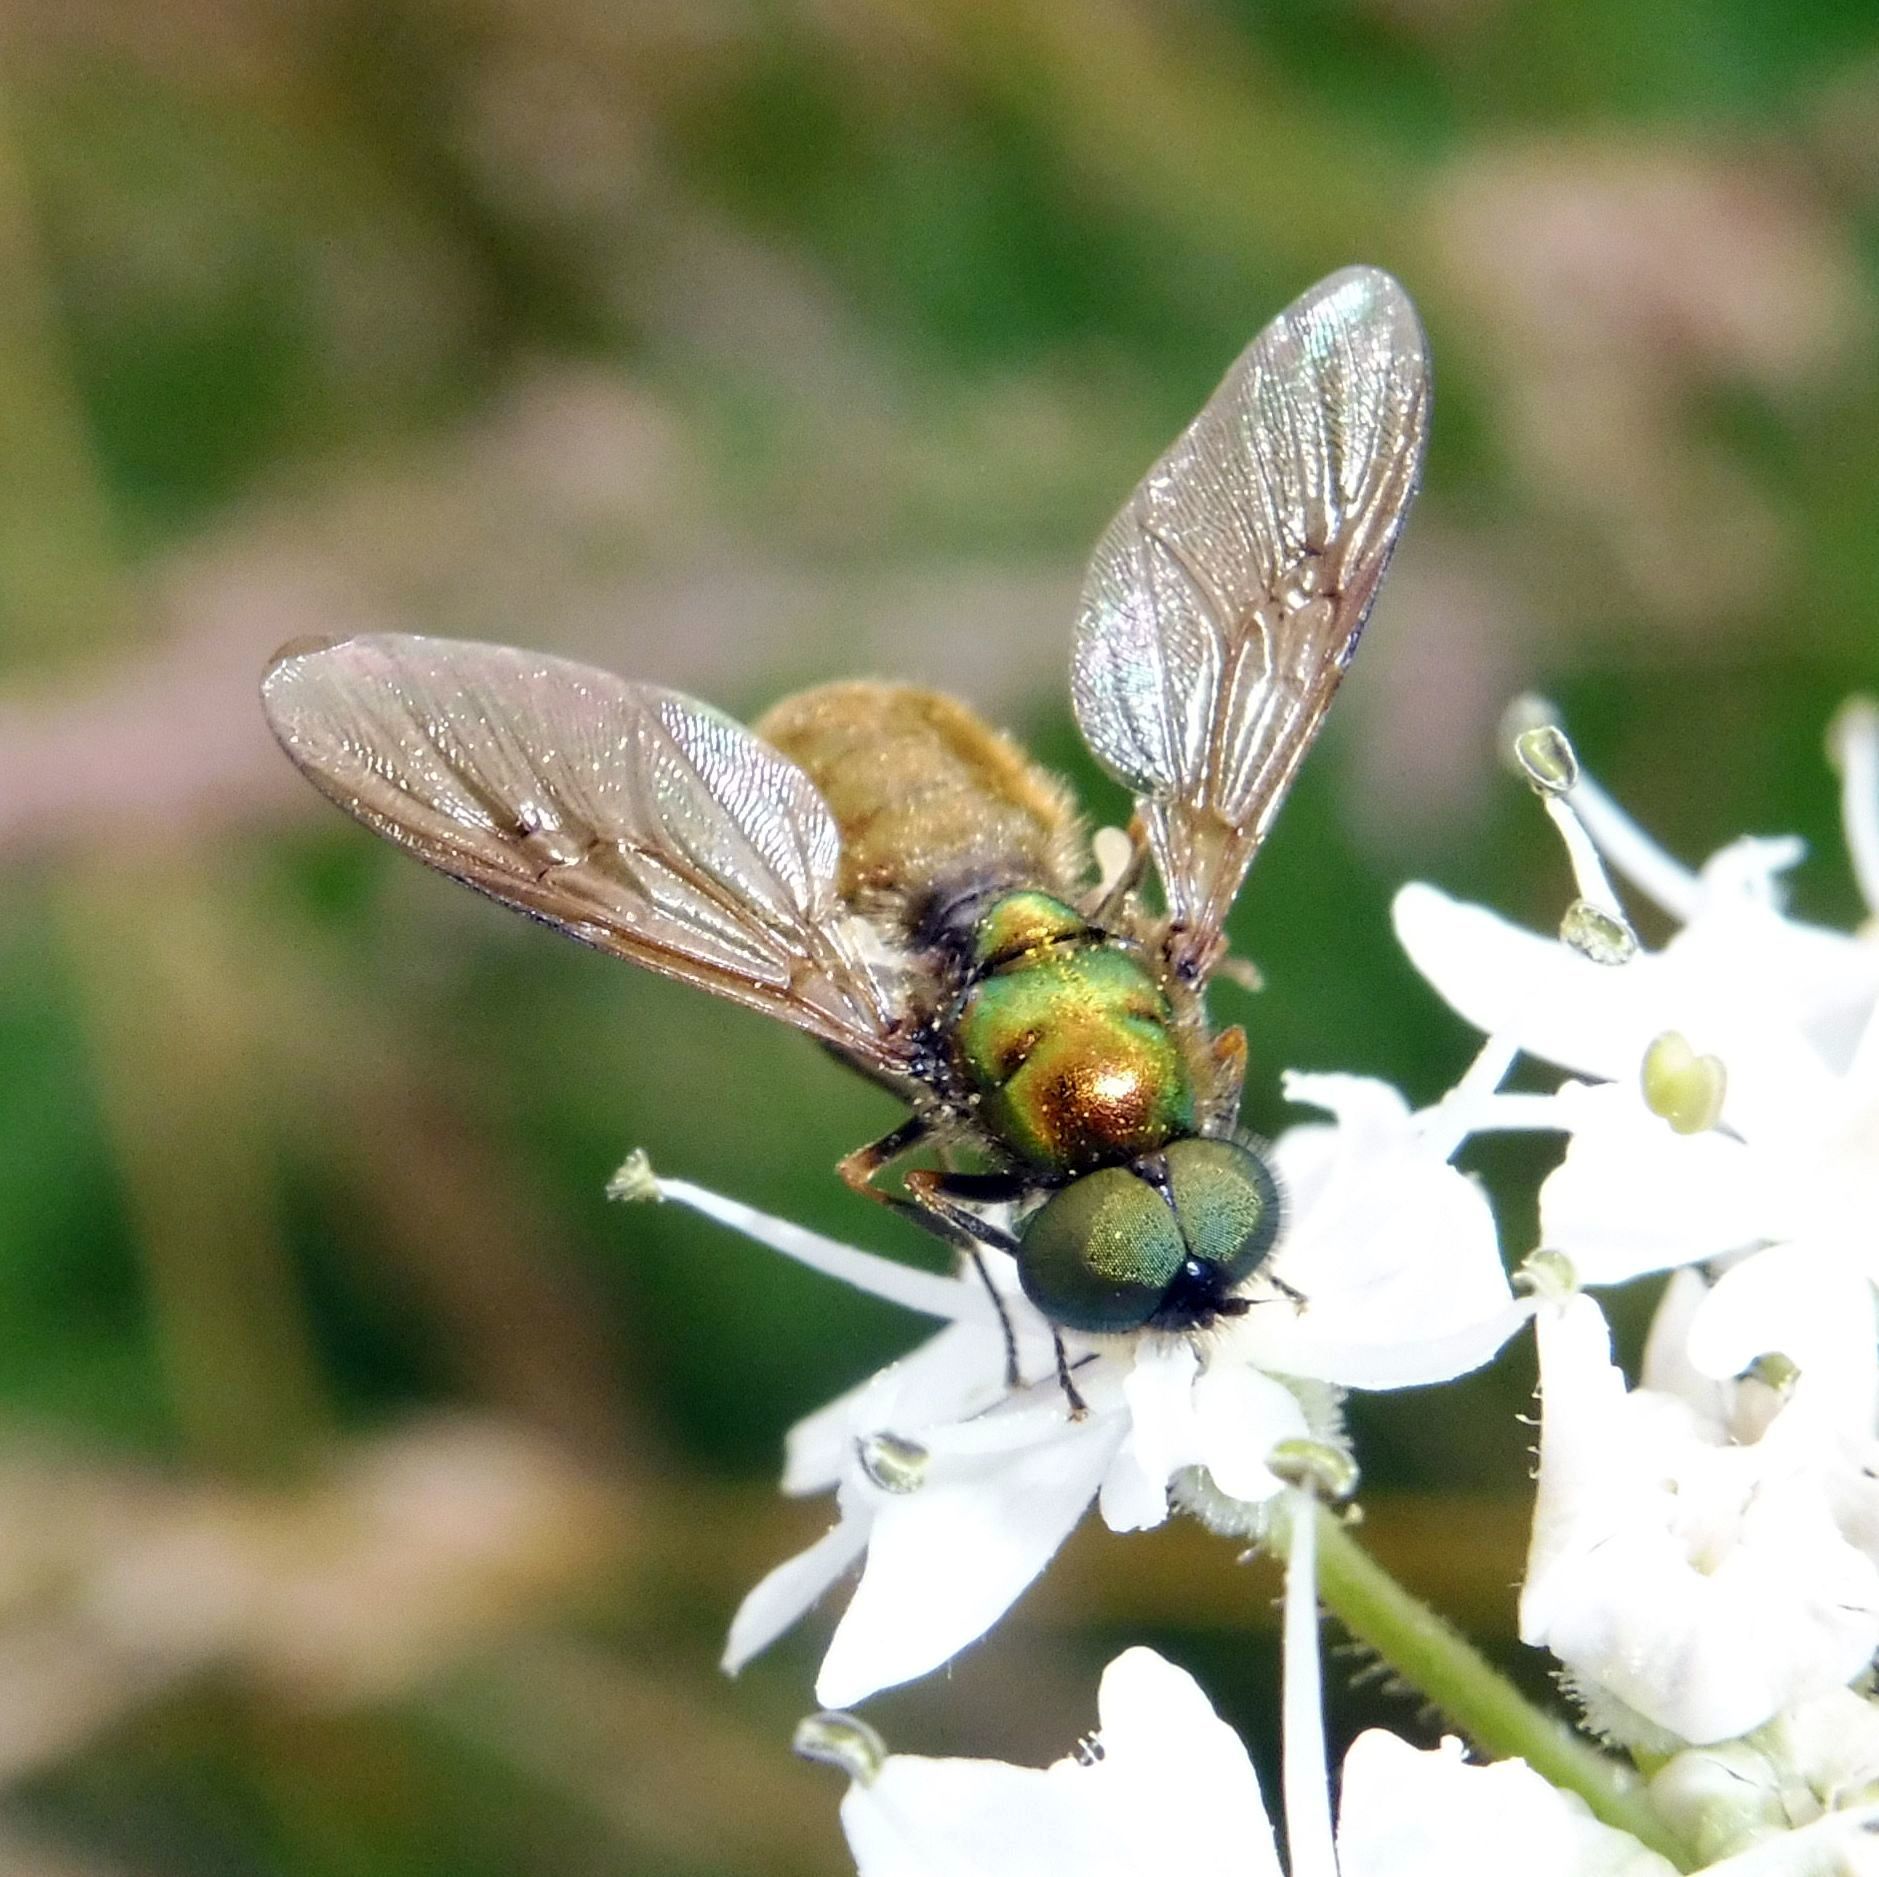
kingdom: Animalia
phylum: Arthropoda
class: Insecta
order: Diptera
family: Stratiomyidae
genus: Chloromyia
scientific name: Chloromyia formosa
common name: Soldier fly
